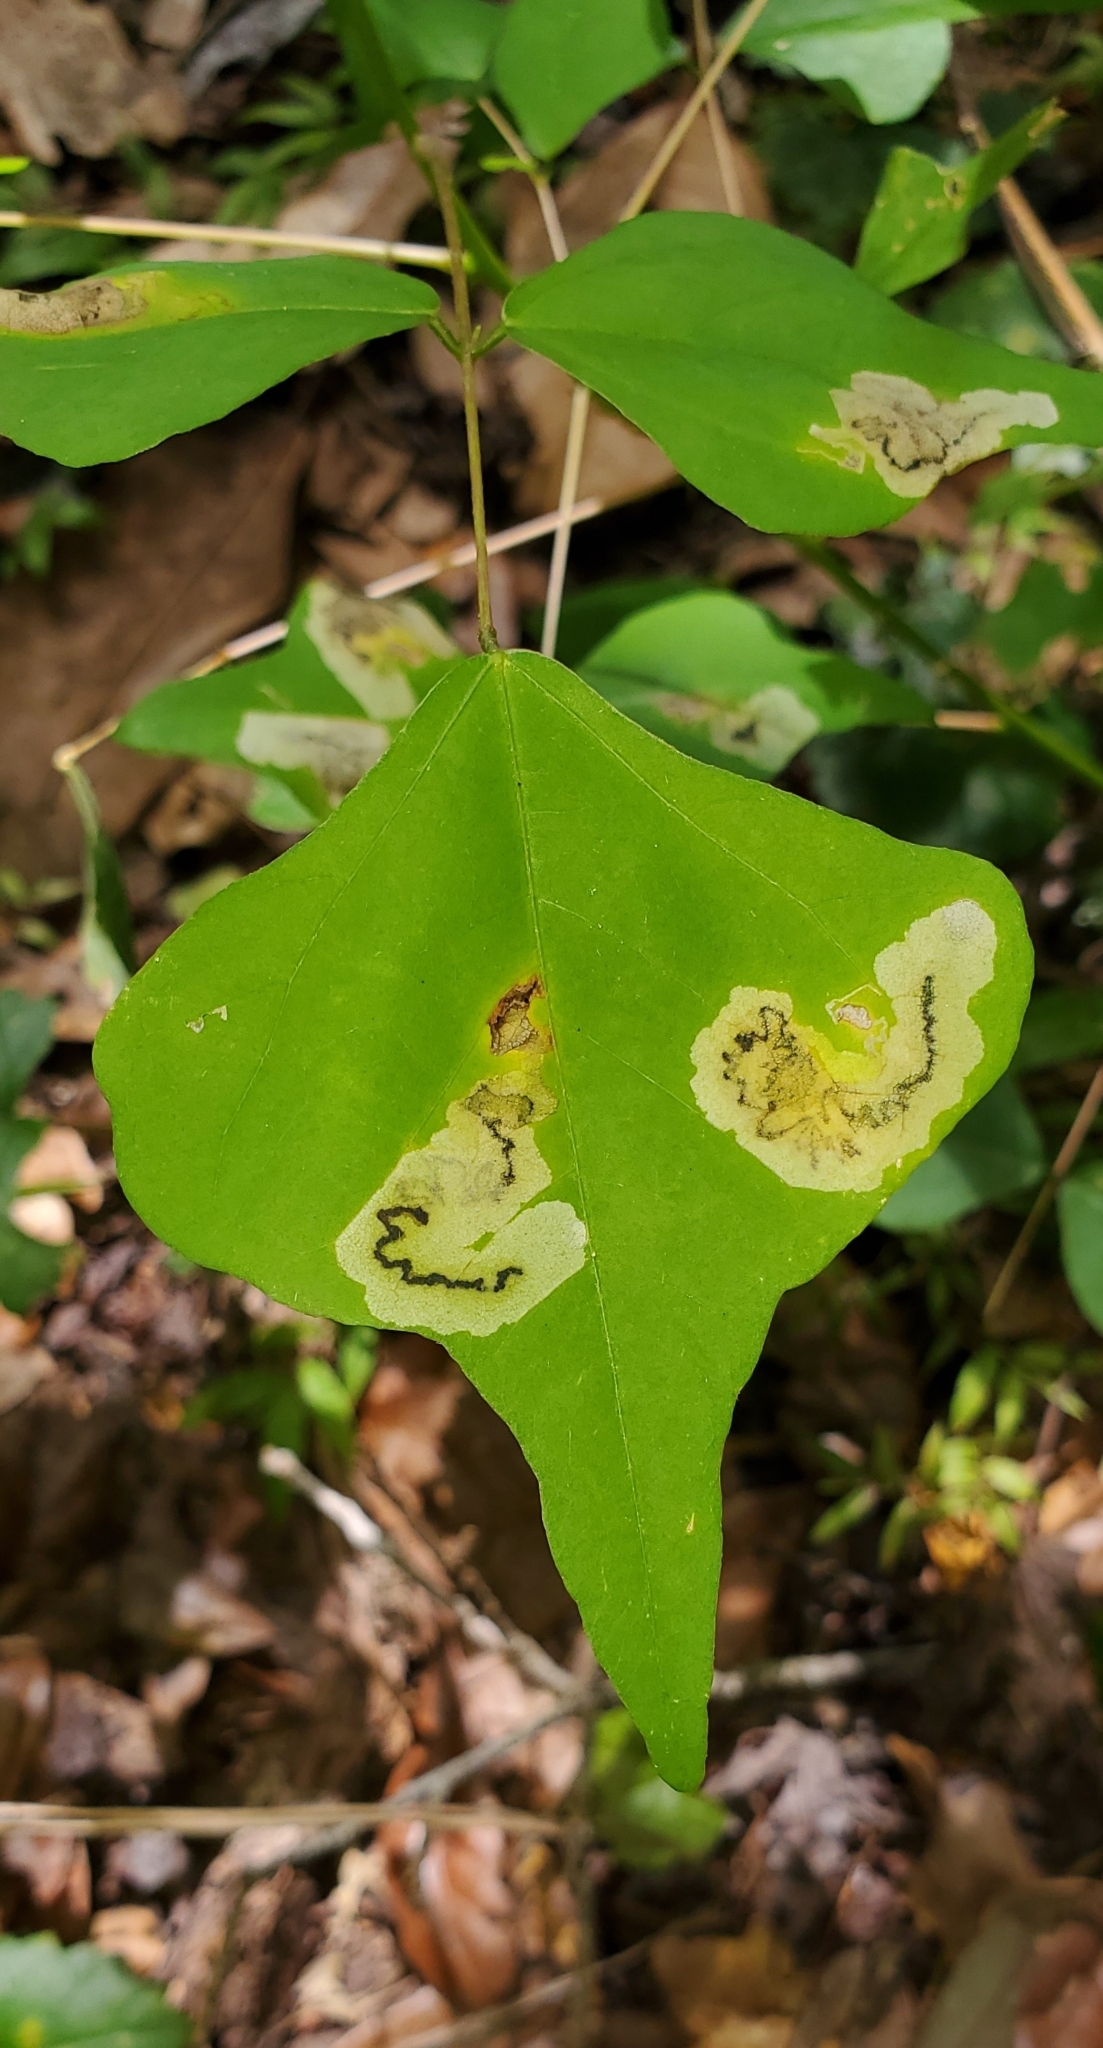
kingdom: Animalia
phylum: Arthropoda
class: Insecta
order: Lepidoptera
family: Lyonetiidae
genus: Leucoptera
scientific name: Leucoptera erythrinella
